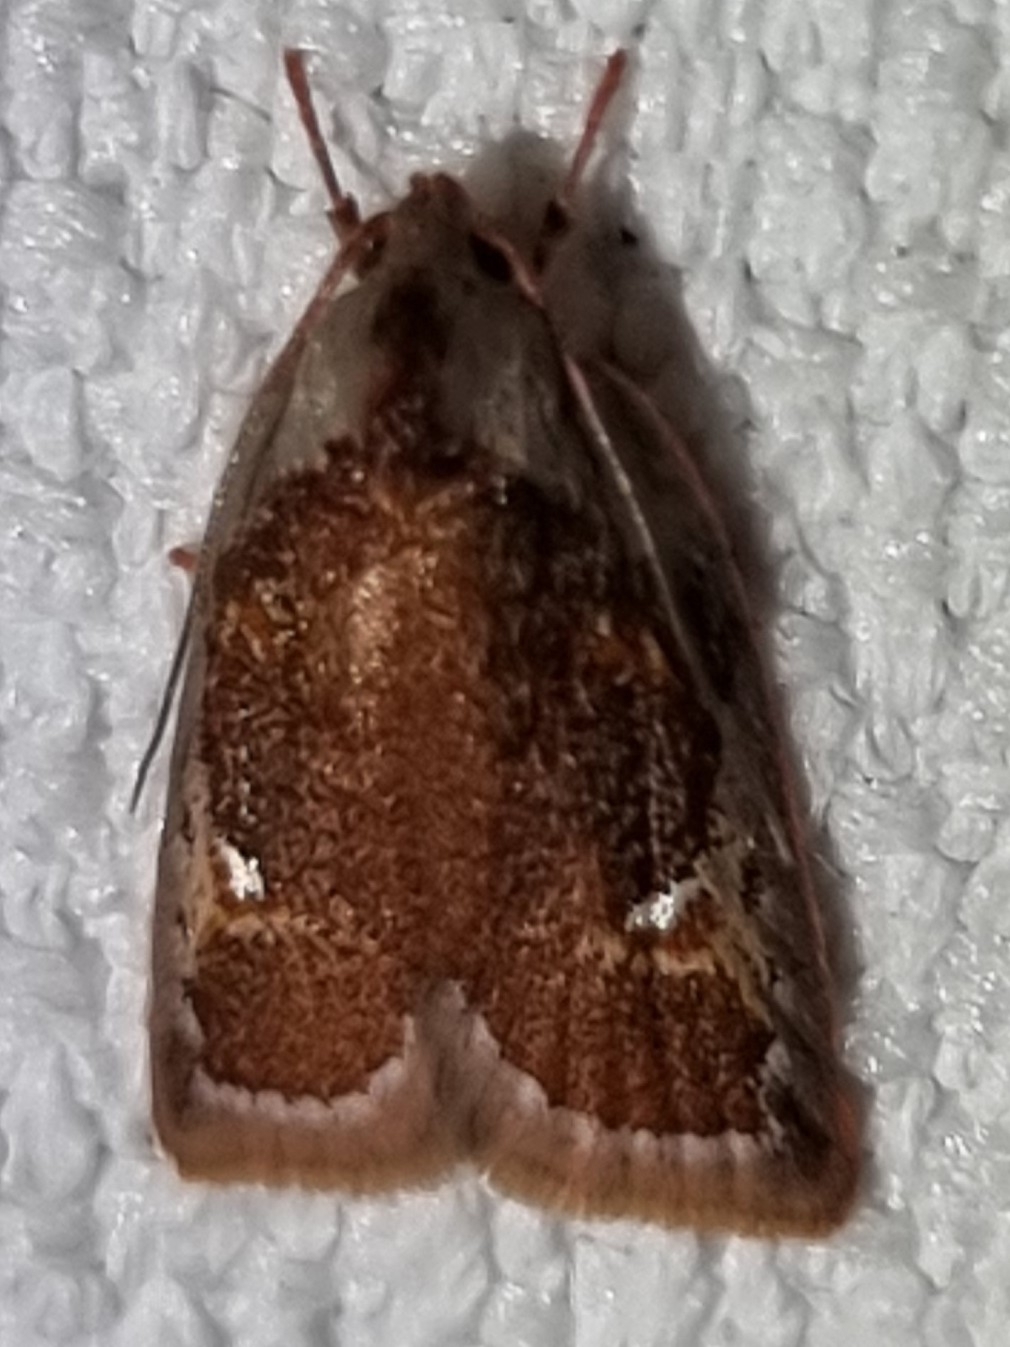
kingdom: Animalia
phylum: Arthropoda
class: Insecta
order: Lepidoptera
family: Oecophoridae
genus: Euchaetis
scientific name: Euchaetis habrocosma
